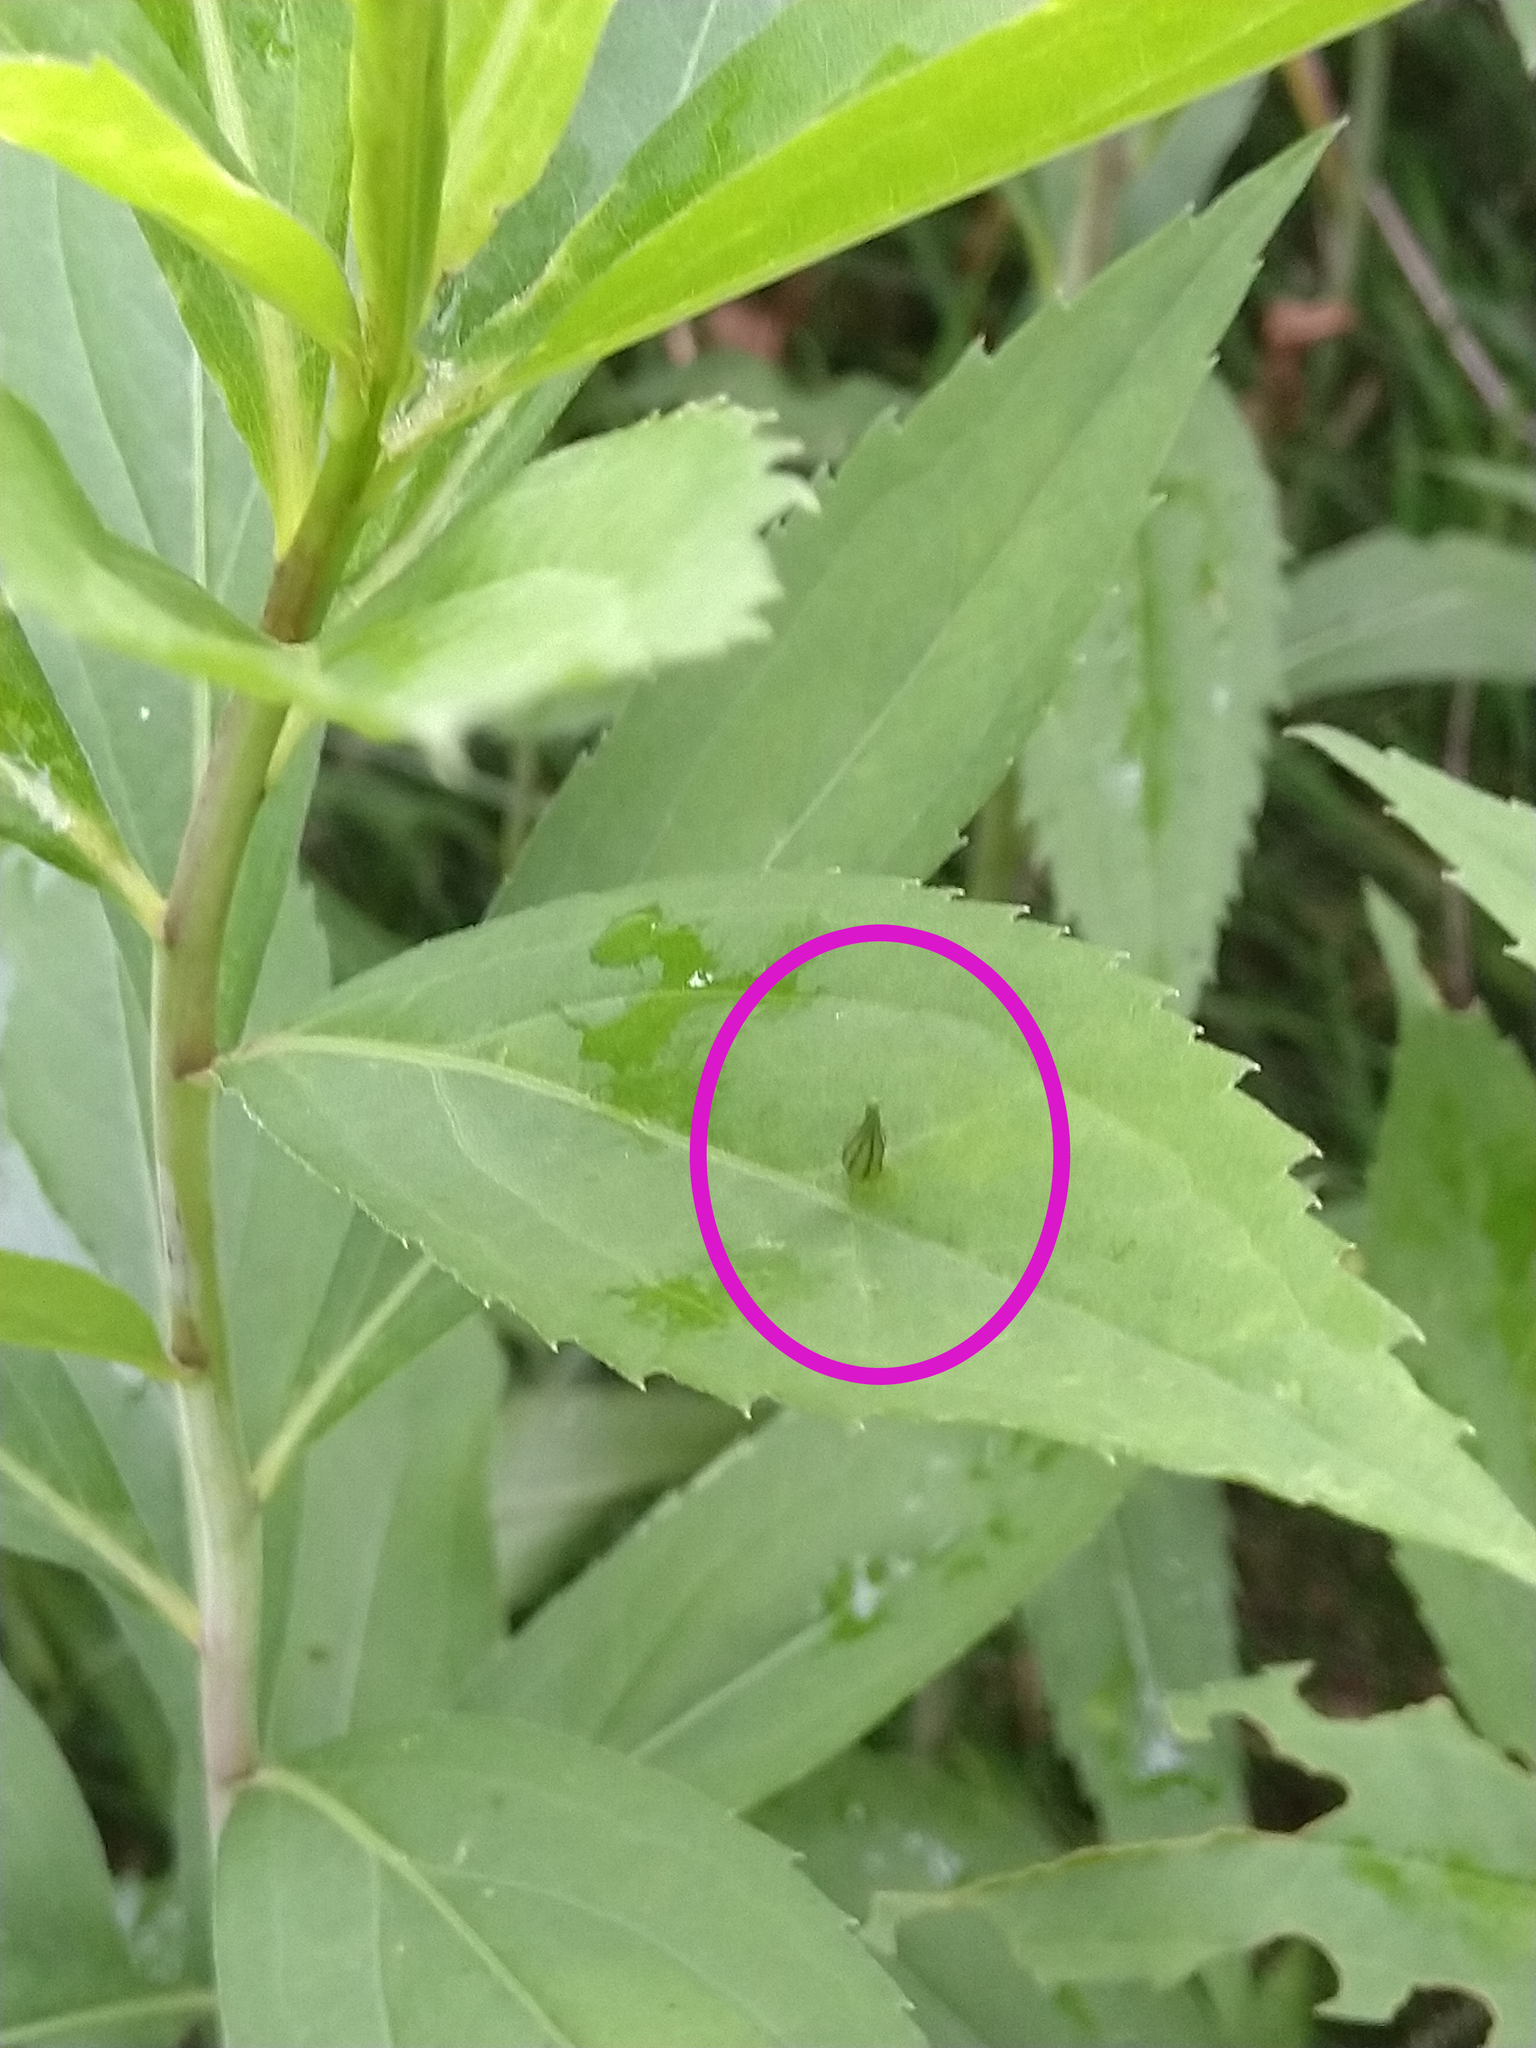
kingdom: Animalia
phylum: Arthropoda
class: Insecta
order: Diptera
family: Cecidomyiidae
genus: Rhopalomyia
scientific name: Rhopalomyia inquisitor
